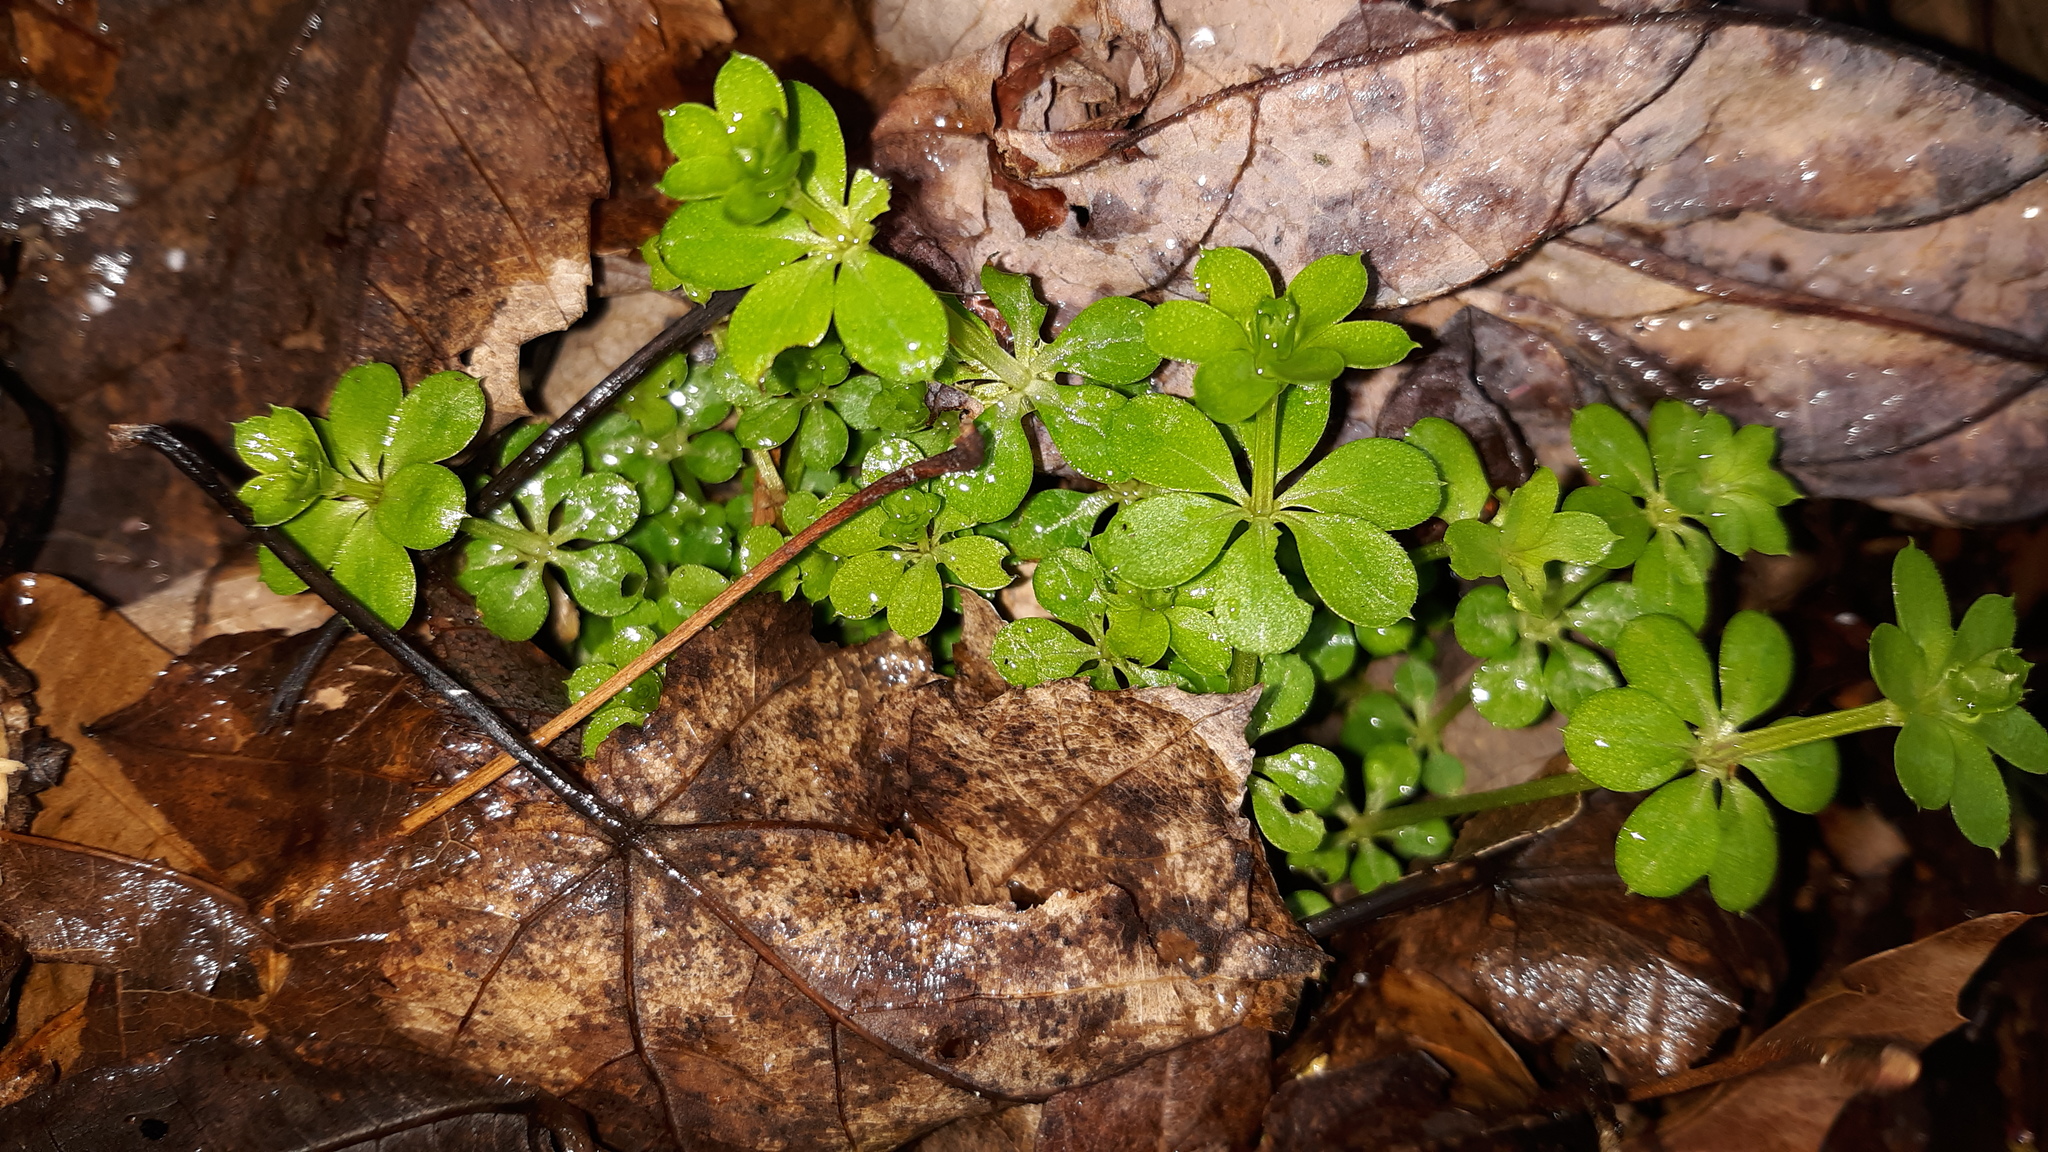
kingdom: Plantae
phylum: Tracheophyta
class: Magnoliopsida
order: Gentianales
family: Rubiaceae
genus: Galium
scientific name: Galium triflorum
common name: Fragrant bedstraw
